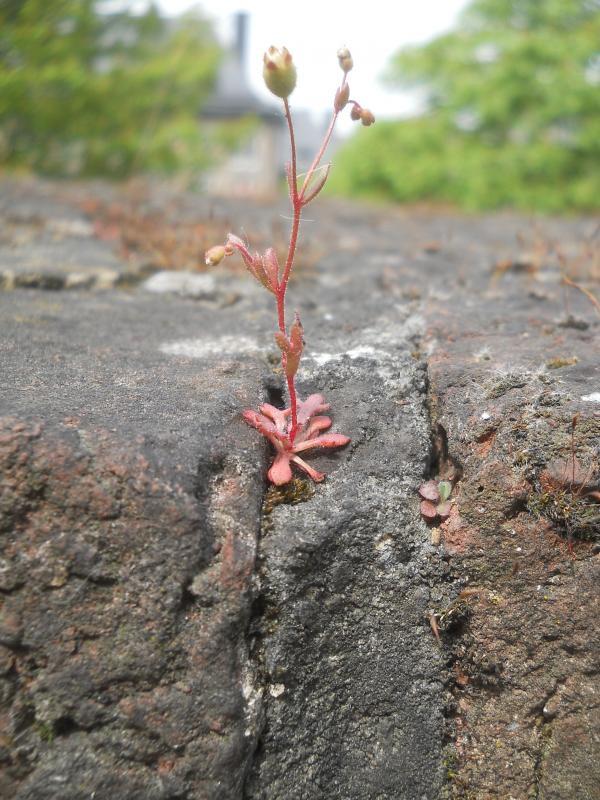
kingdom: Plantae
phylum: Tracheophyta
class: Magnoliopsida
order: Saxifragales
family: Saxifragaceae
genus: Saxifraga
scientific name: Saxifraga tridactylites
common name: Rue-leaved saxifrage
